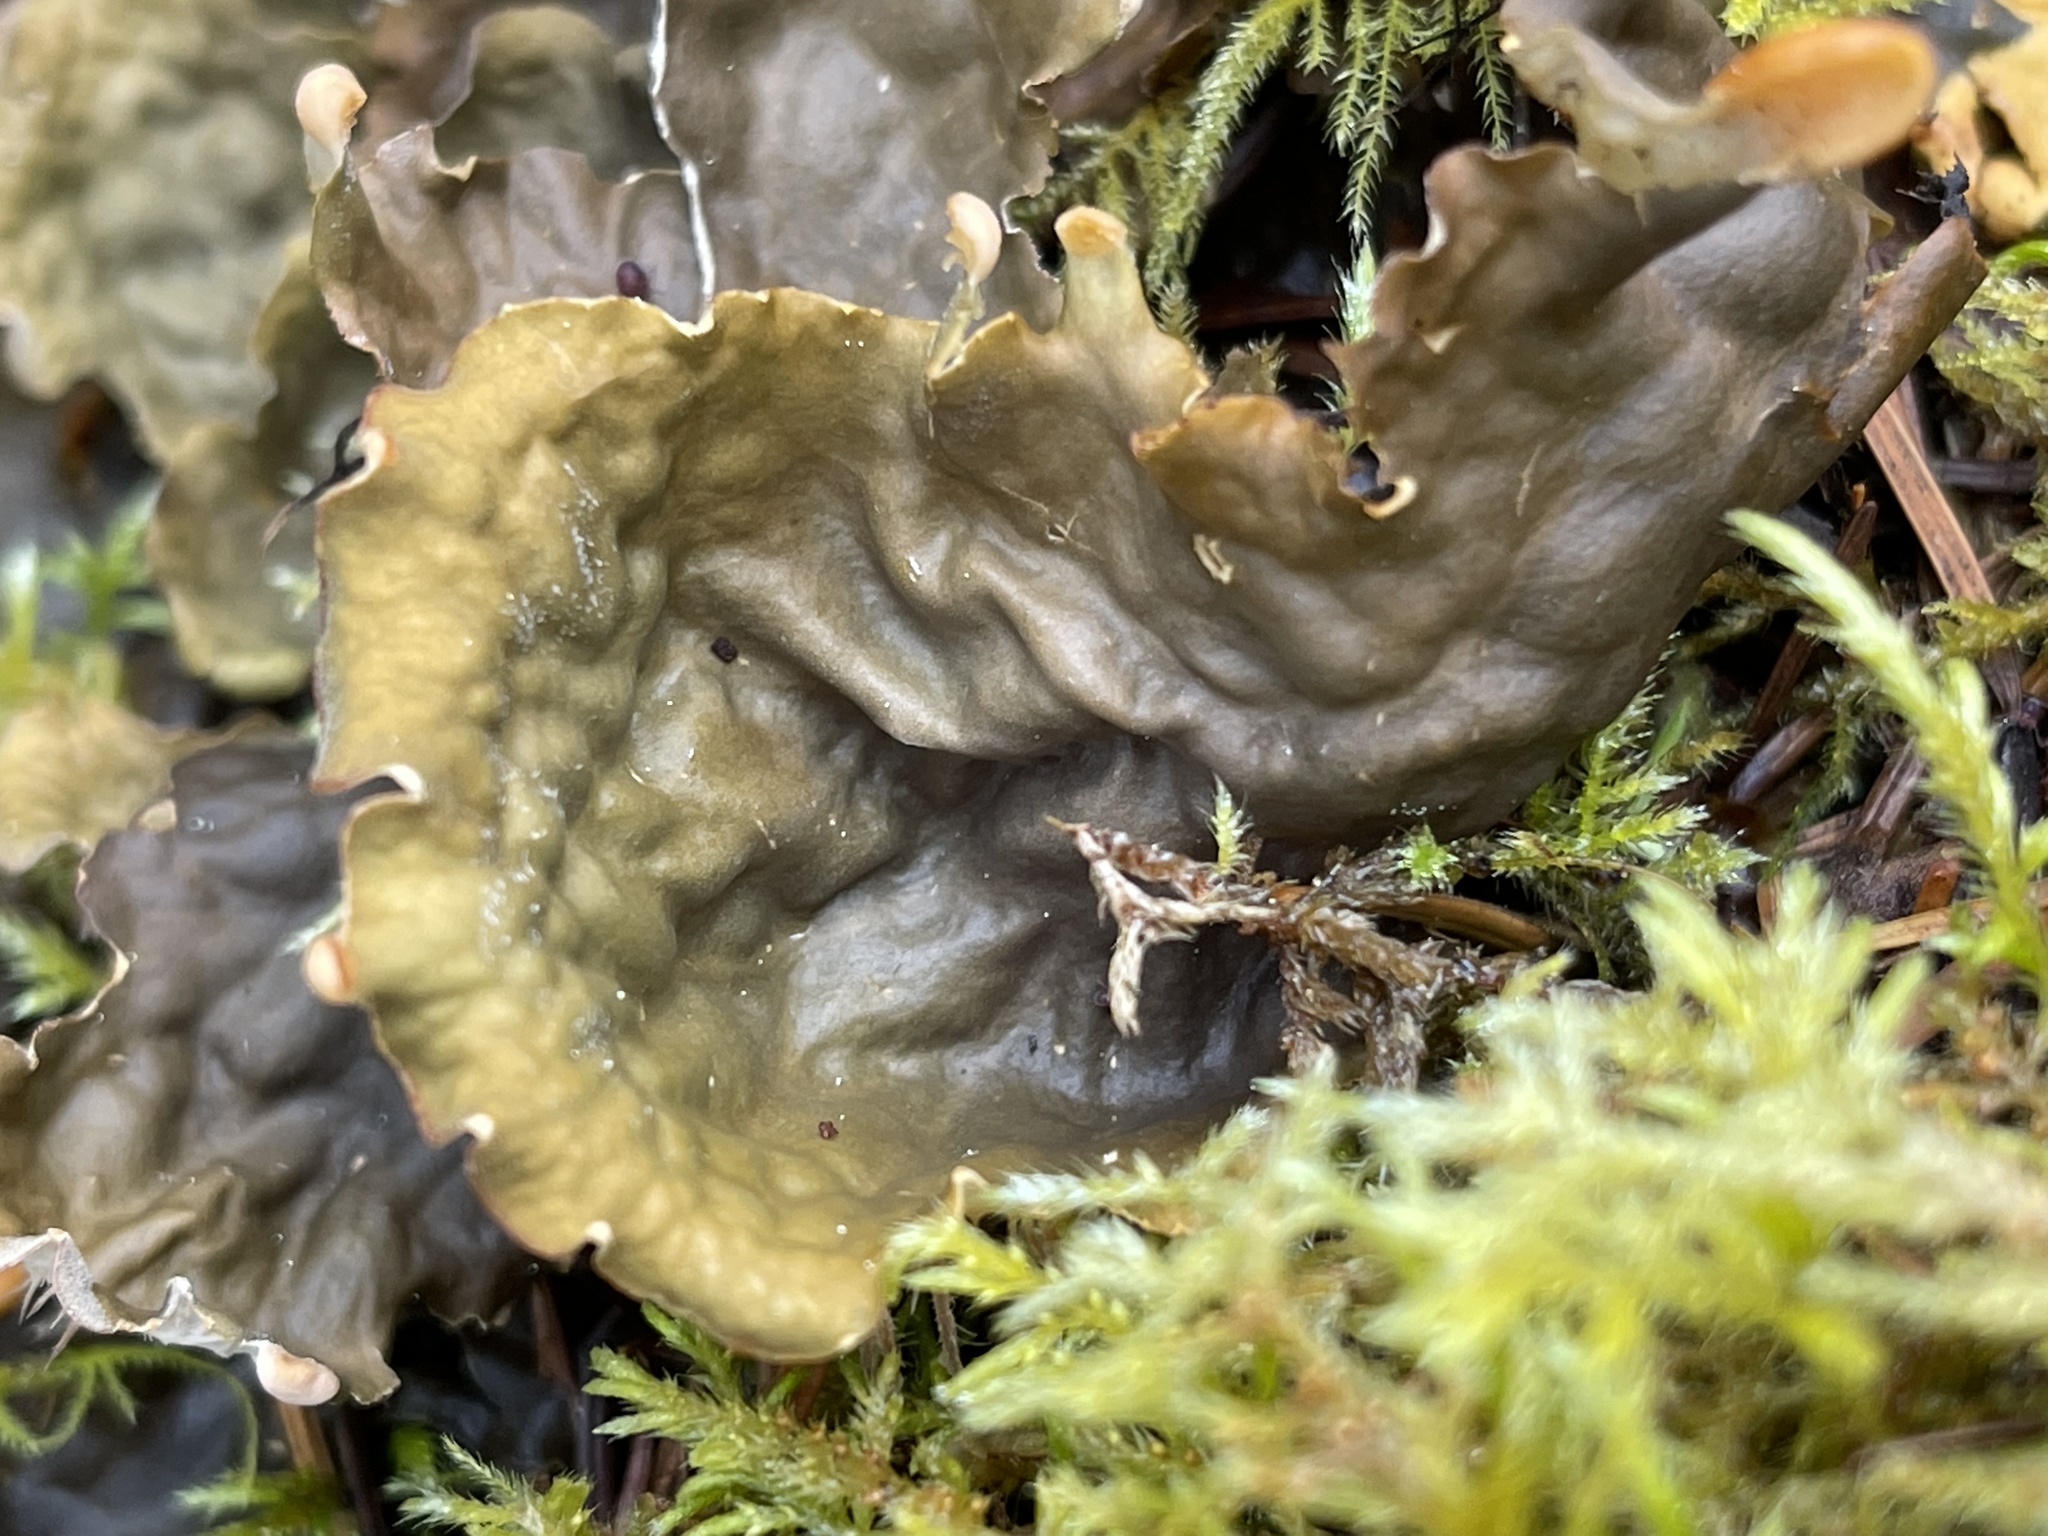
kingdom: Fungi
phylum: Ascomycota
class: Lecanoromycetes
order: Peltigerales
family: Peltigeraceae
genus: Peltigera
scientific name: Peltigera membranacea
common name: Membranous pelt lichen
